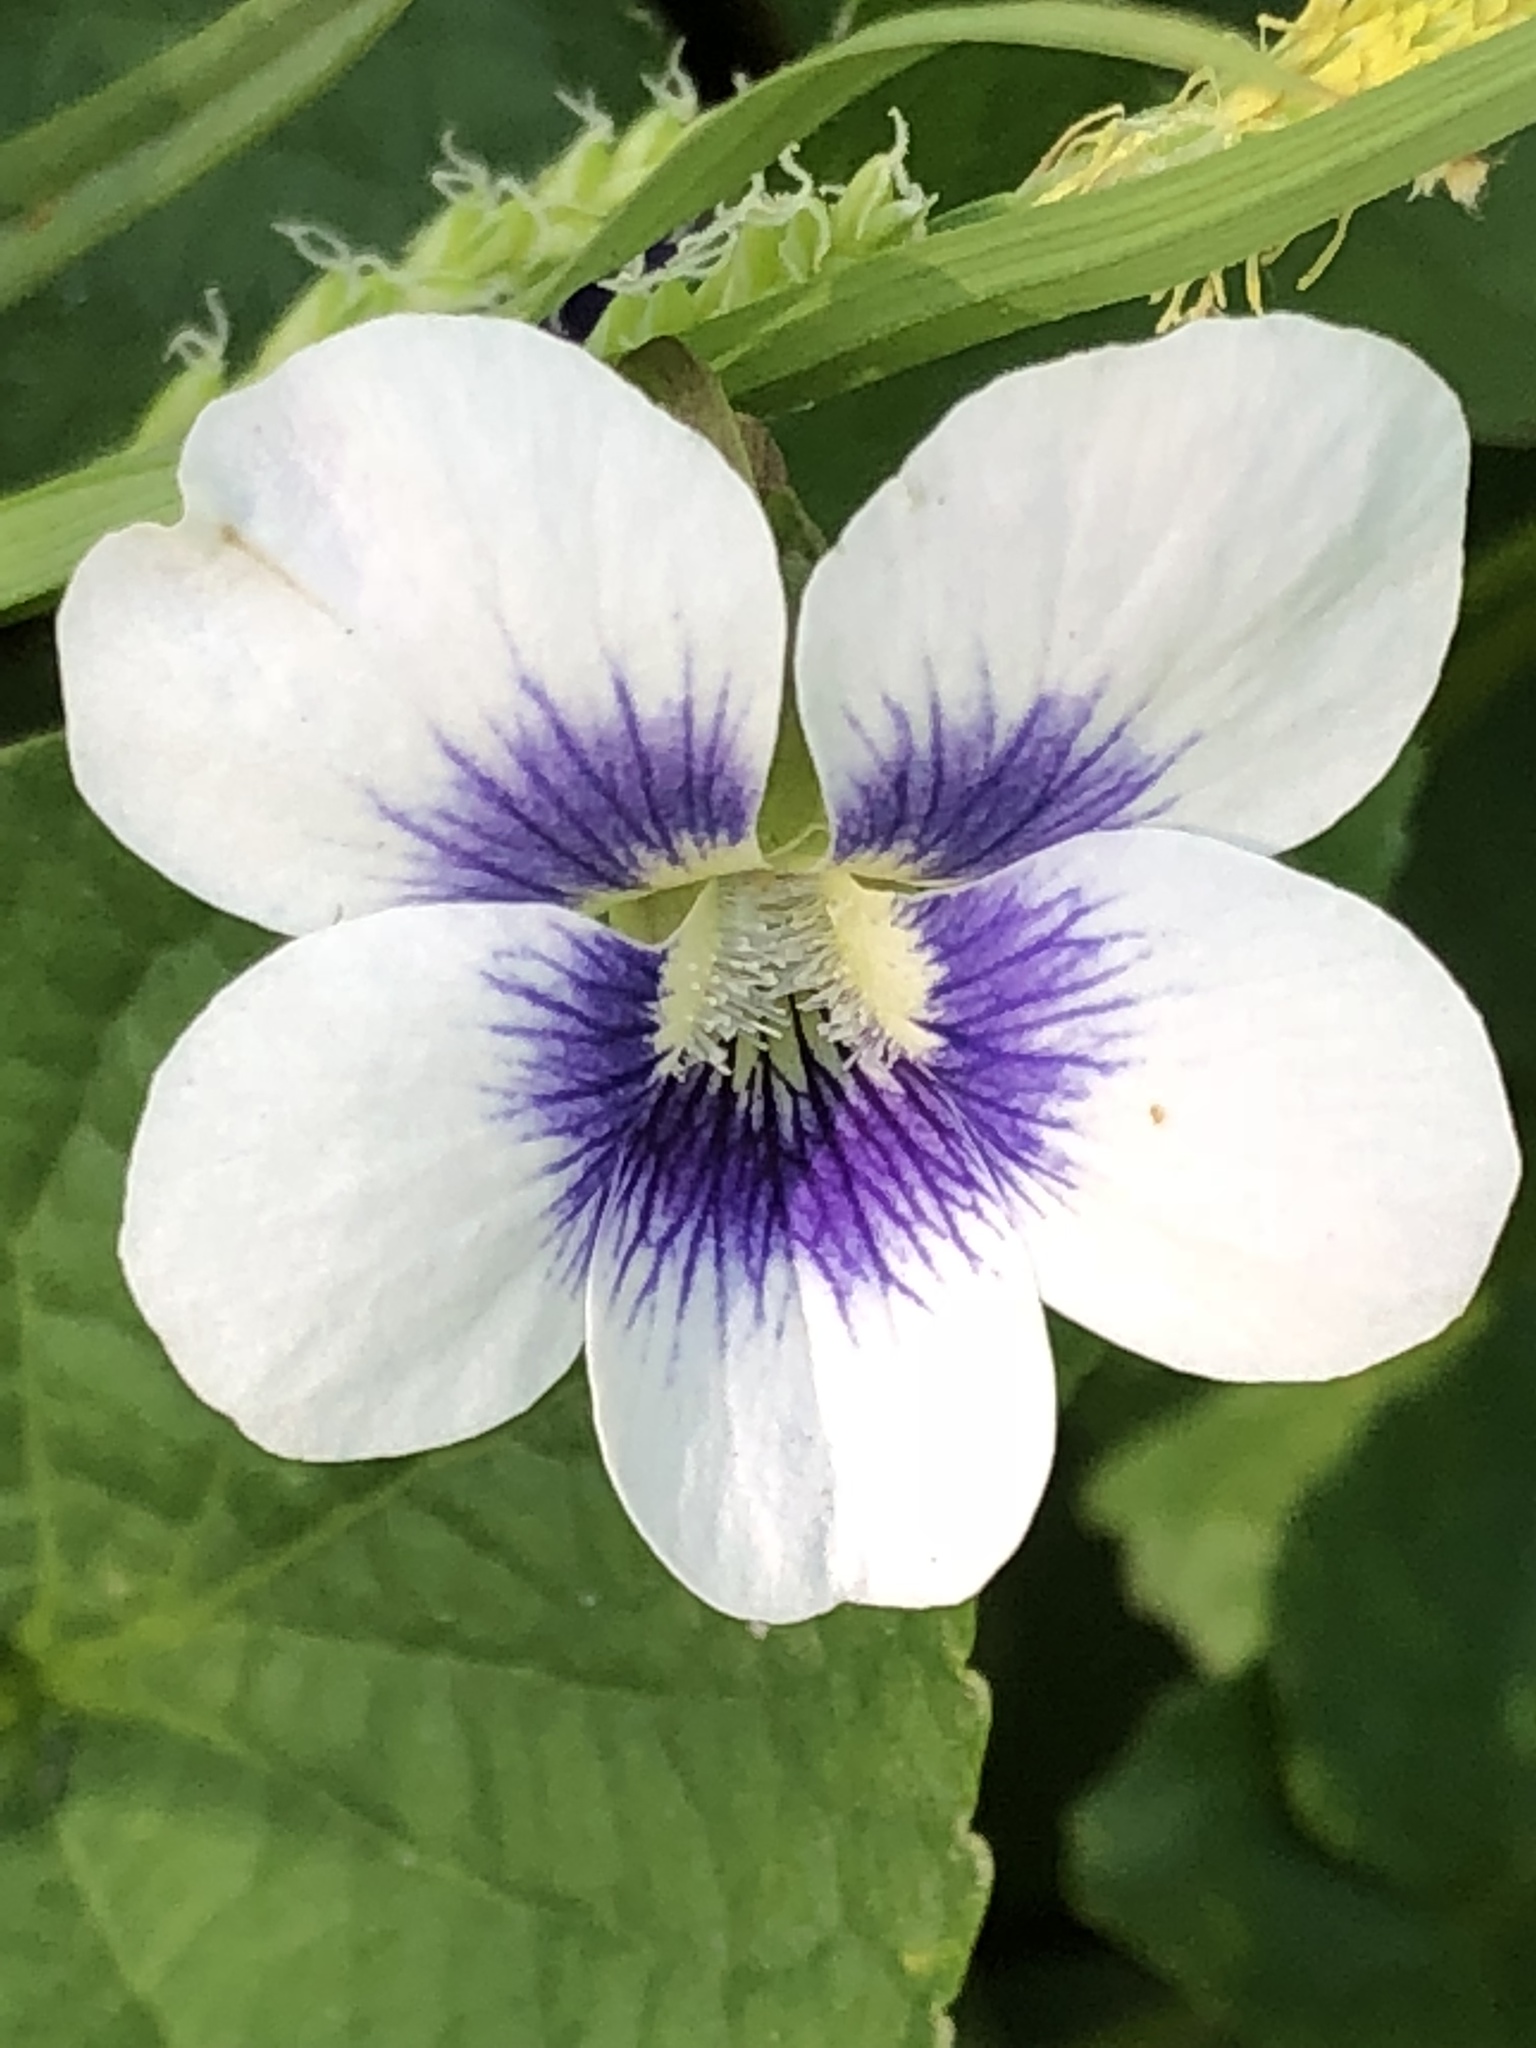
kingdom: Plantae
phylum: Tracheophyta
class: Magnoliopsida
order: Malpighiales
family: Violaceae
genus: Viola
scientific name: Viola sororia
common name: Dooryard violet
